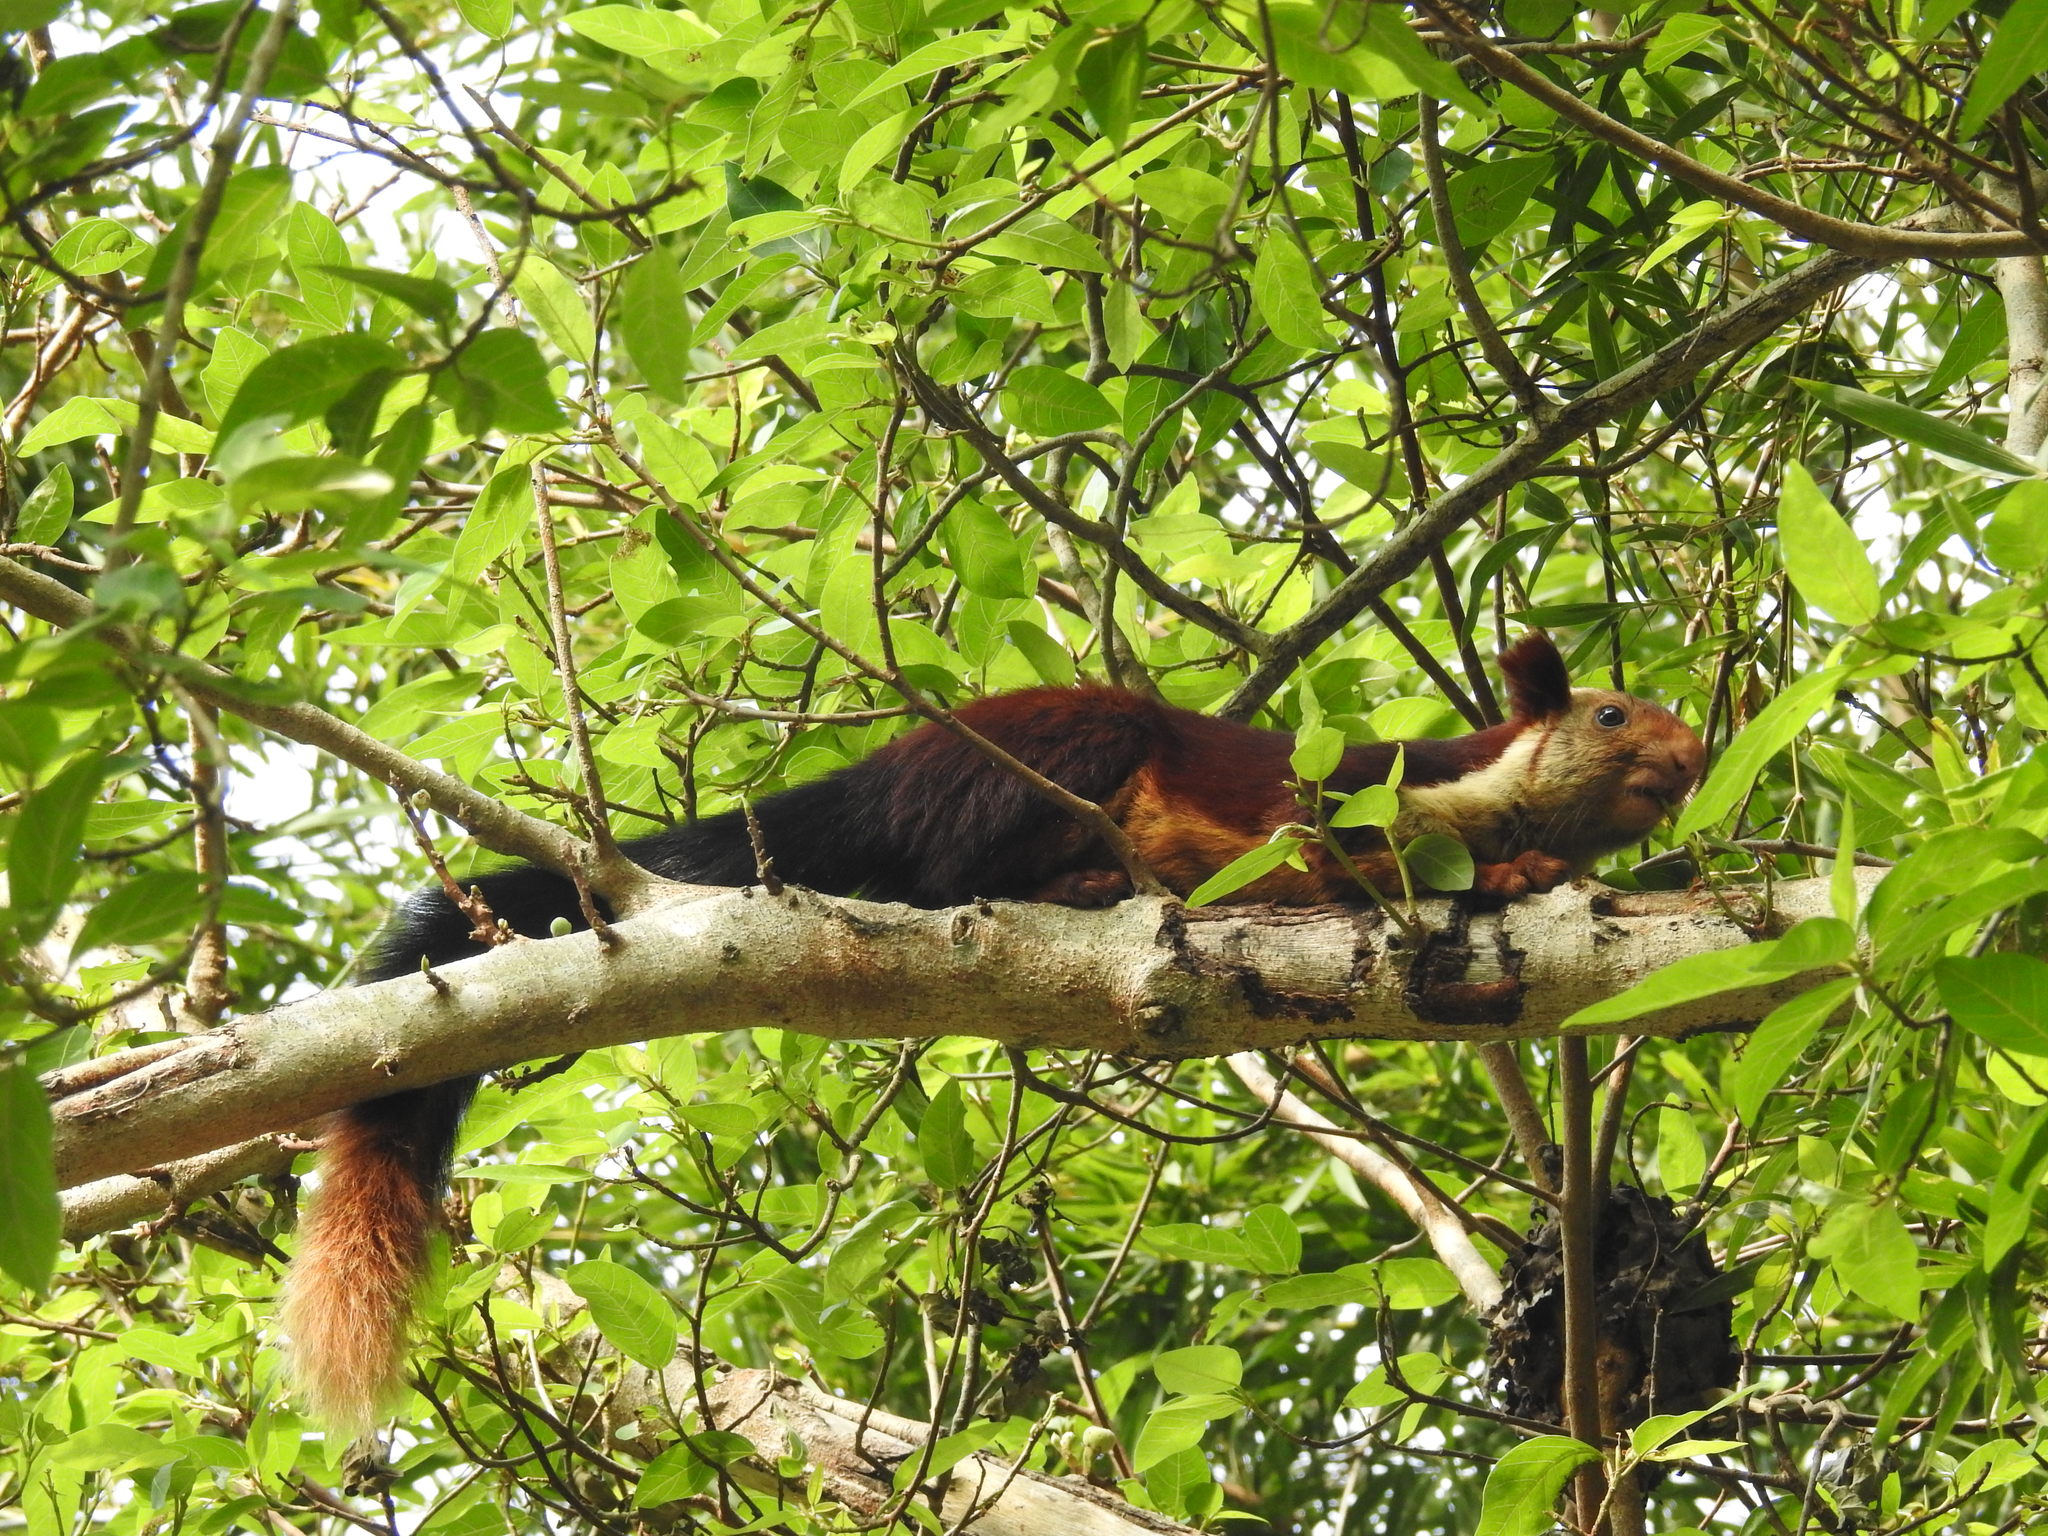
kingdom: Animalia
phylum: Chordata
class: Mammalia
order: Rodentia
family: Sciuridae
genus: Ratufa
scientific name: Ratufa indica
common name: Indian giant squirrel
